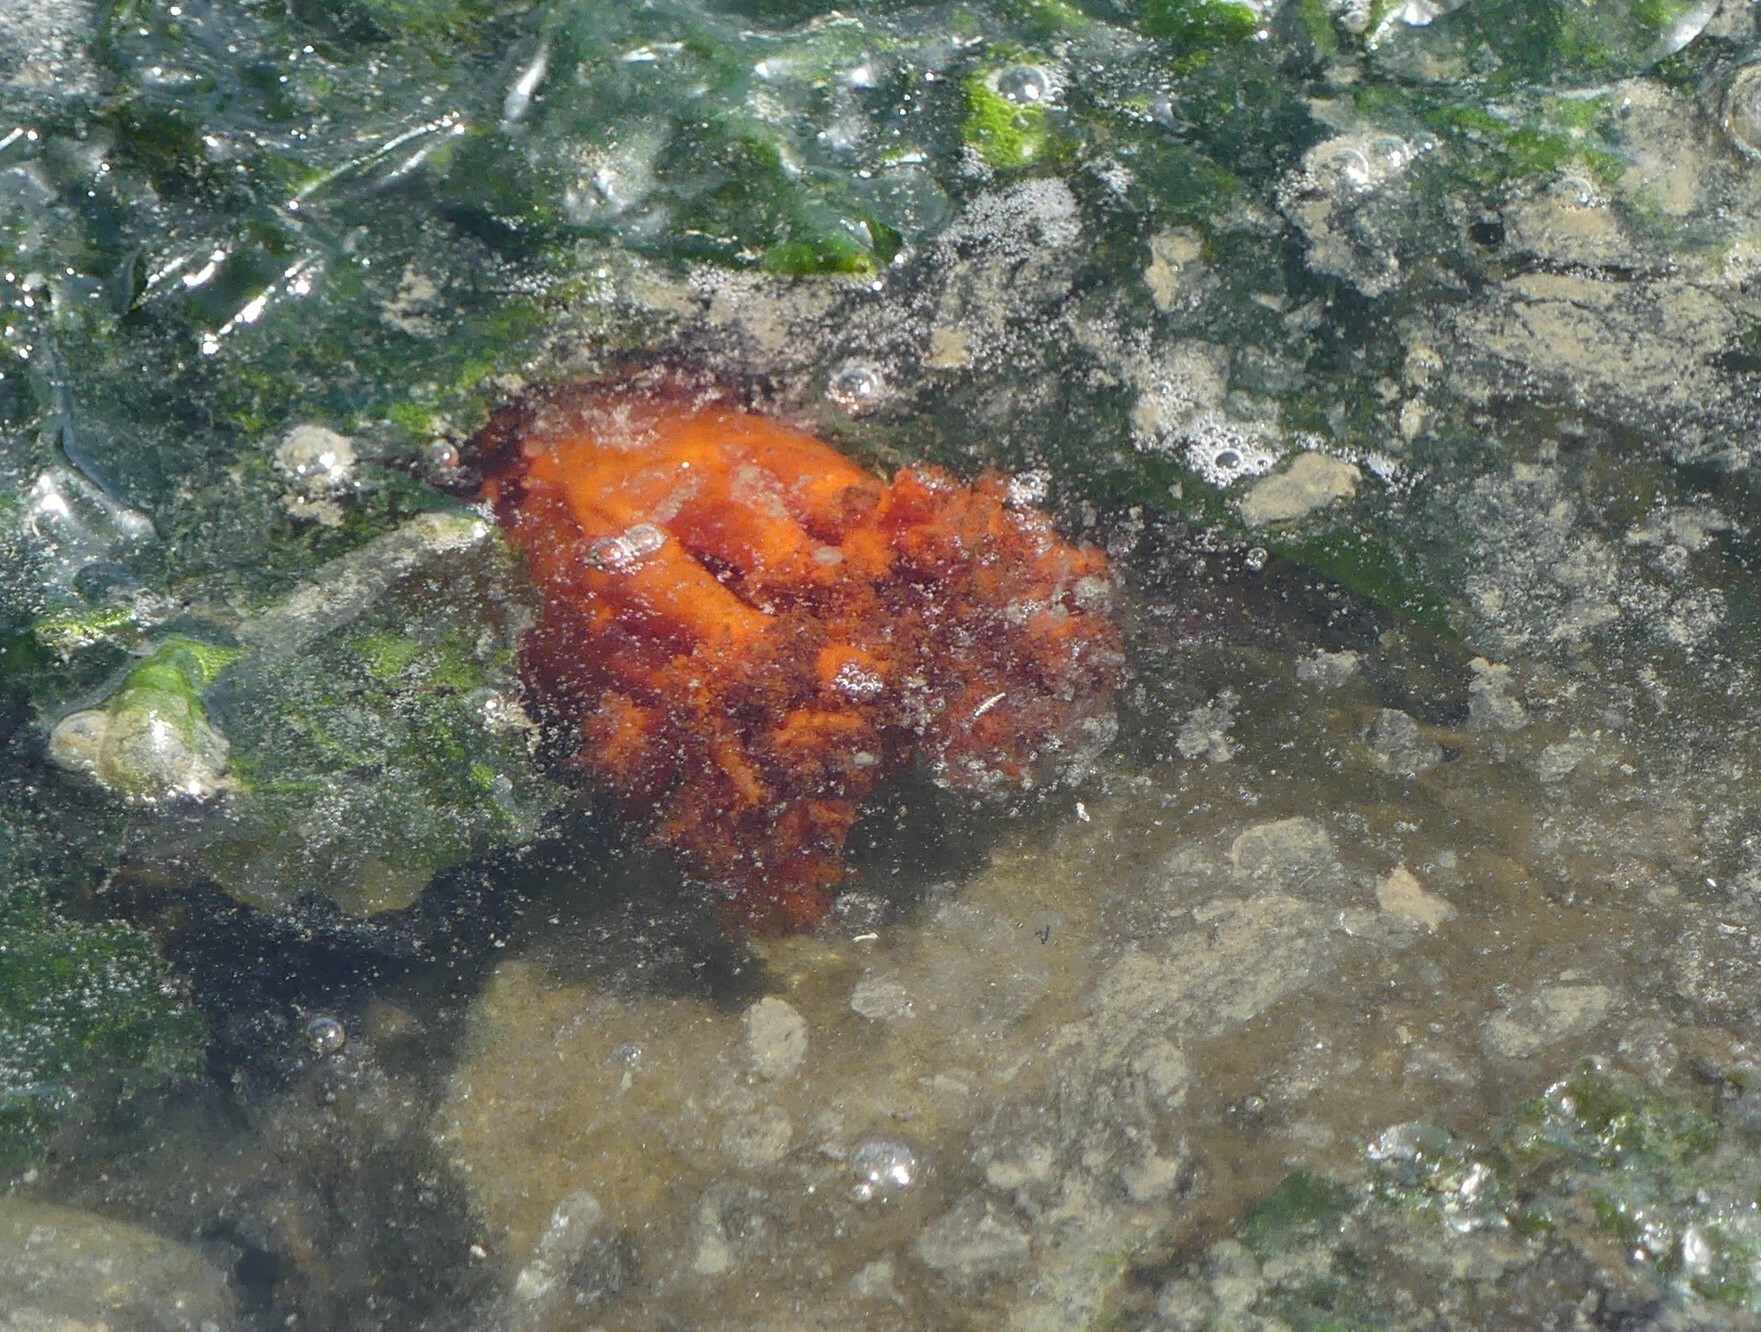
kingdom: Animalia
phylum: Echinodermata
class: Holothuroidea
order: Dendrochirotida
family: Cucumariidae
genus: Cucumaria
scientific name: Cucumaria miniata
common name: Orange sea cucumber
